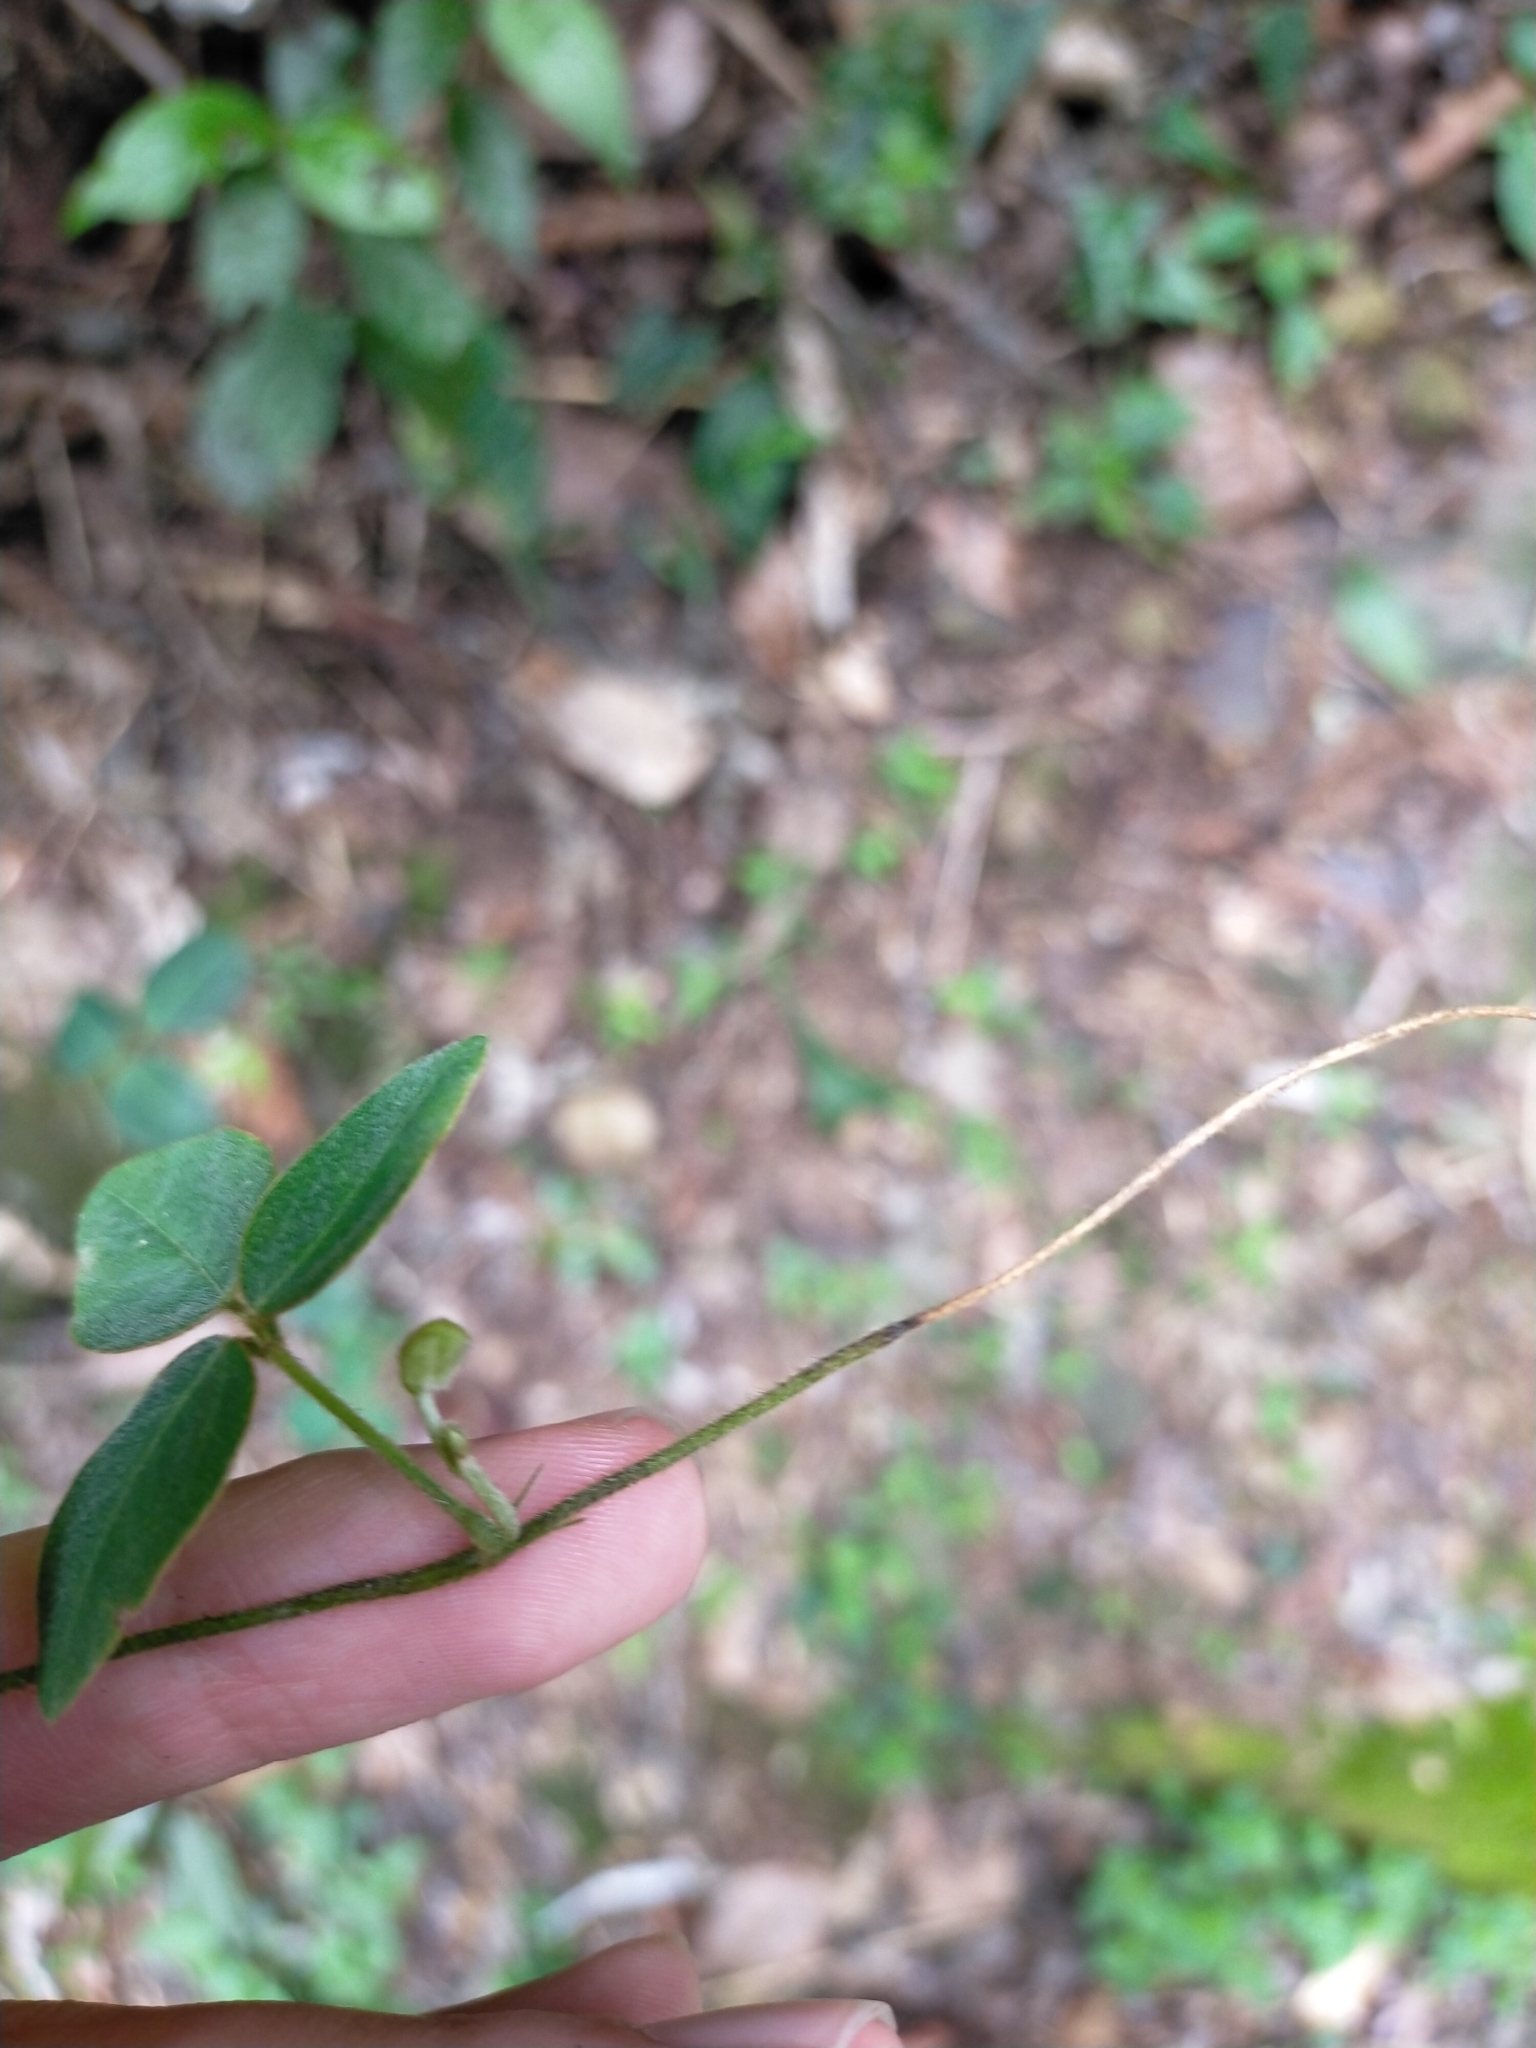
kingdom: Plantae
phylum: Tracheophyta
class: Magnoliopsida
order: Fabales
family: Fabaceae
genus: Dumasia
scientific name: Dumasia villosa
